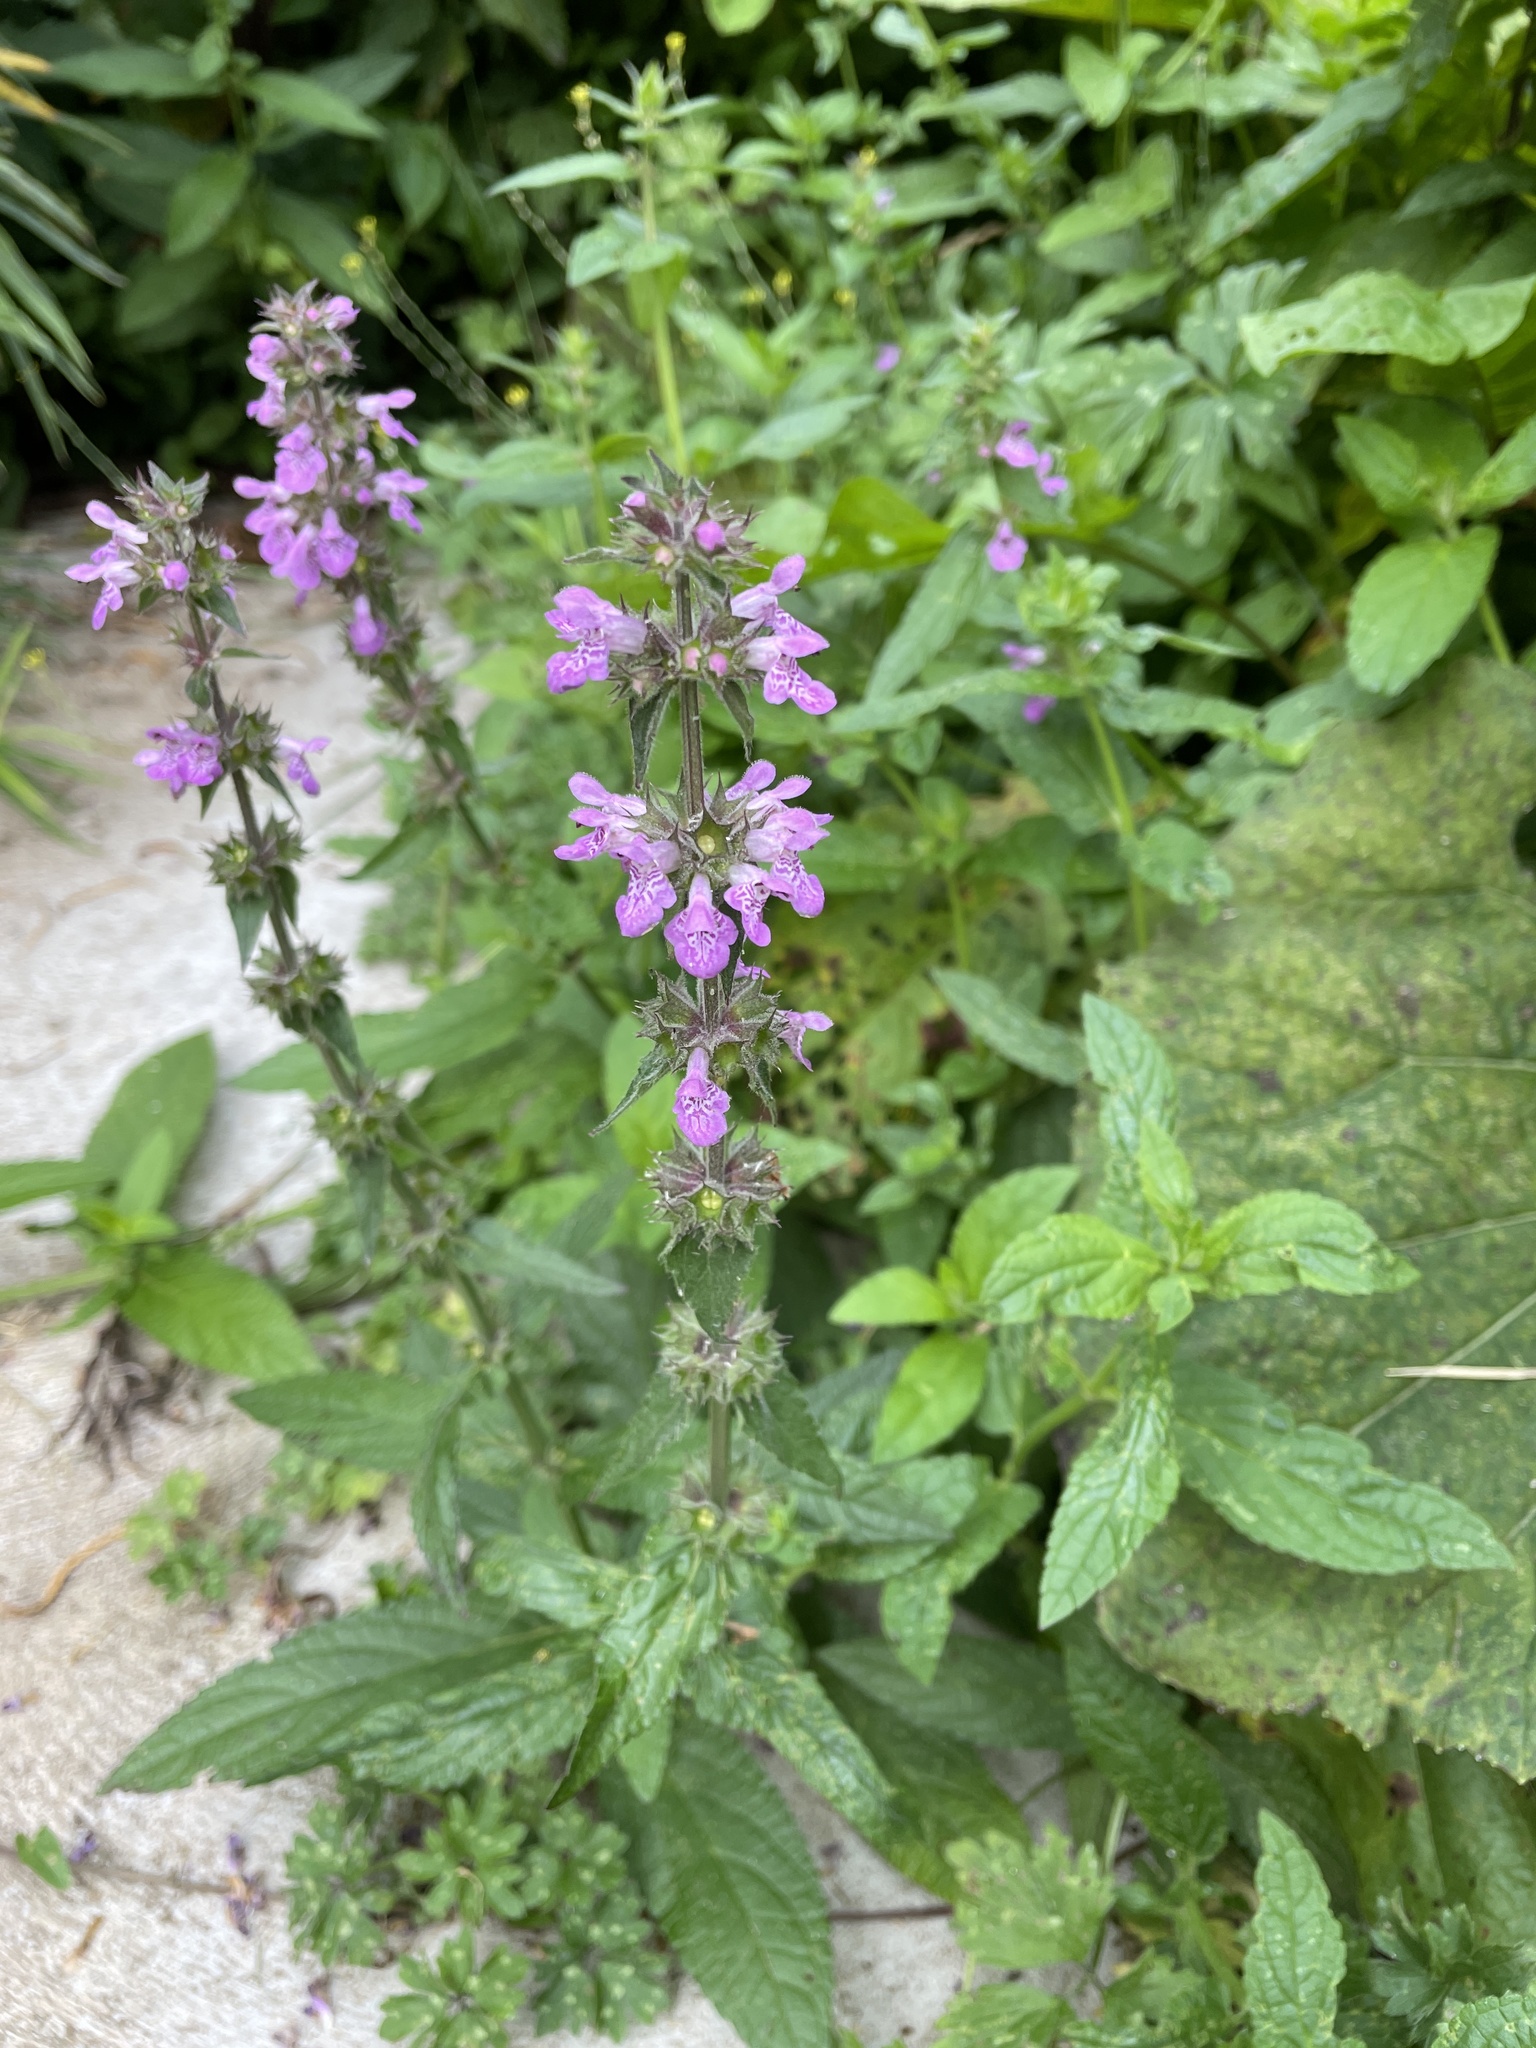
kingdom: Plantae
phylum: Tracheophyta
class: Magnoliopsida
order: Lamiales
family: Lamiaceae
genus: Stachys
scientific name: Stachys palustris
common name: Marsh woundwort
